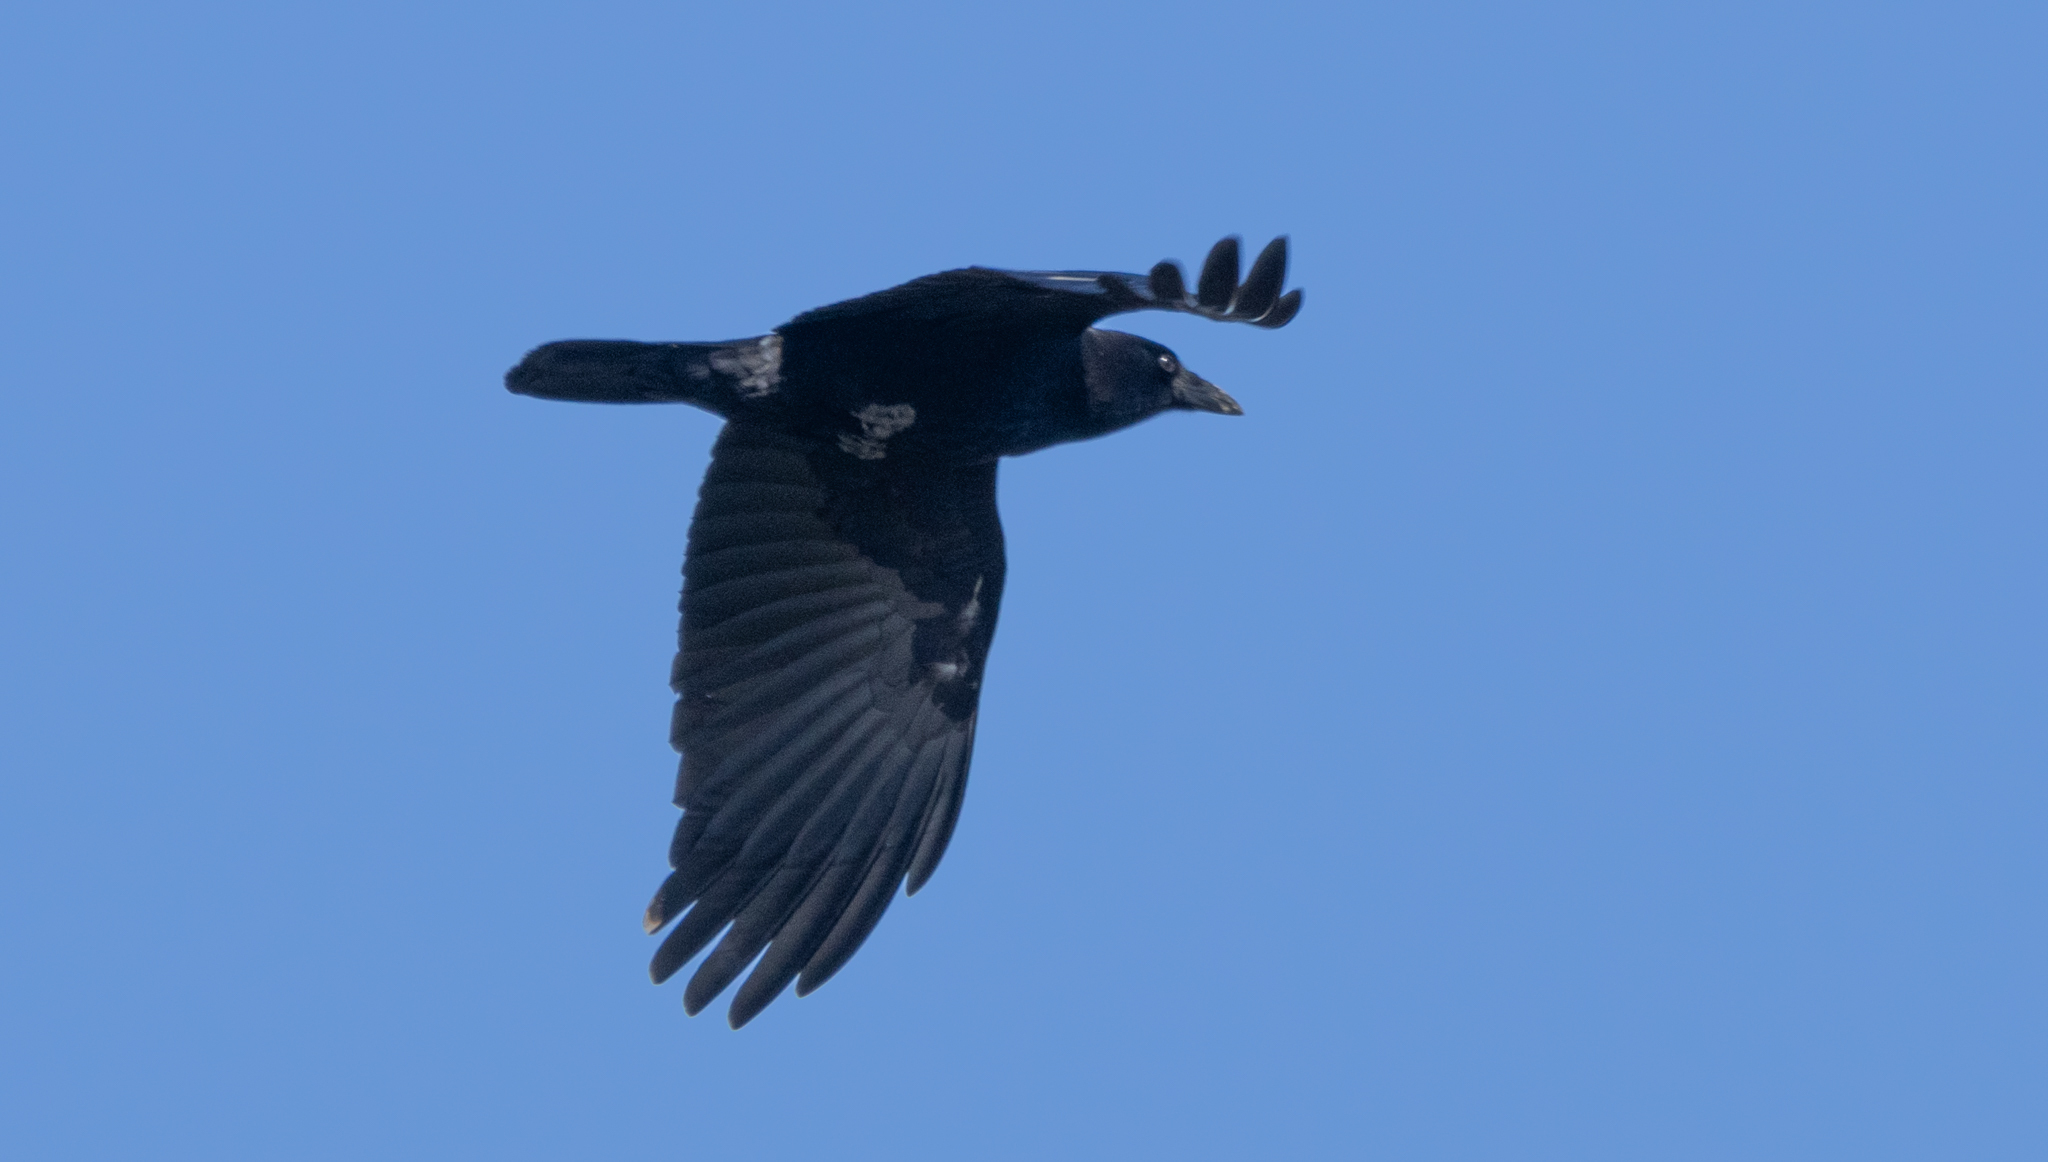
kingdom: Animalia
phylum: Chordata
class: Aves
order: Passeriformes
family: Corvidae
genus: Corvus
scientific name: Corvus brachyrhynchos
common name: American crow
